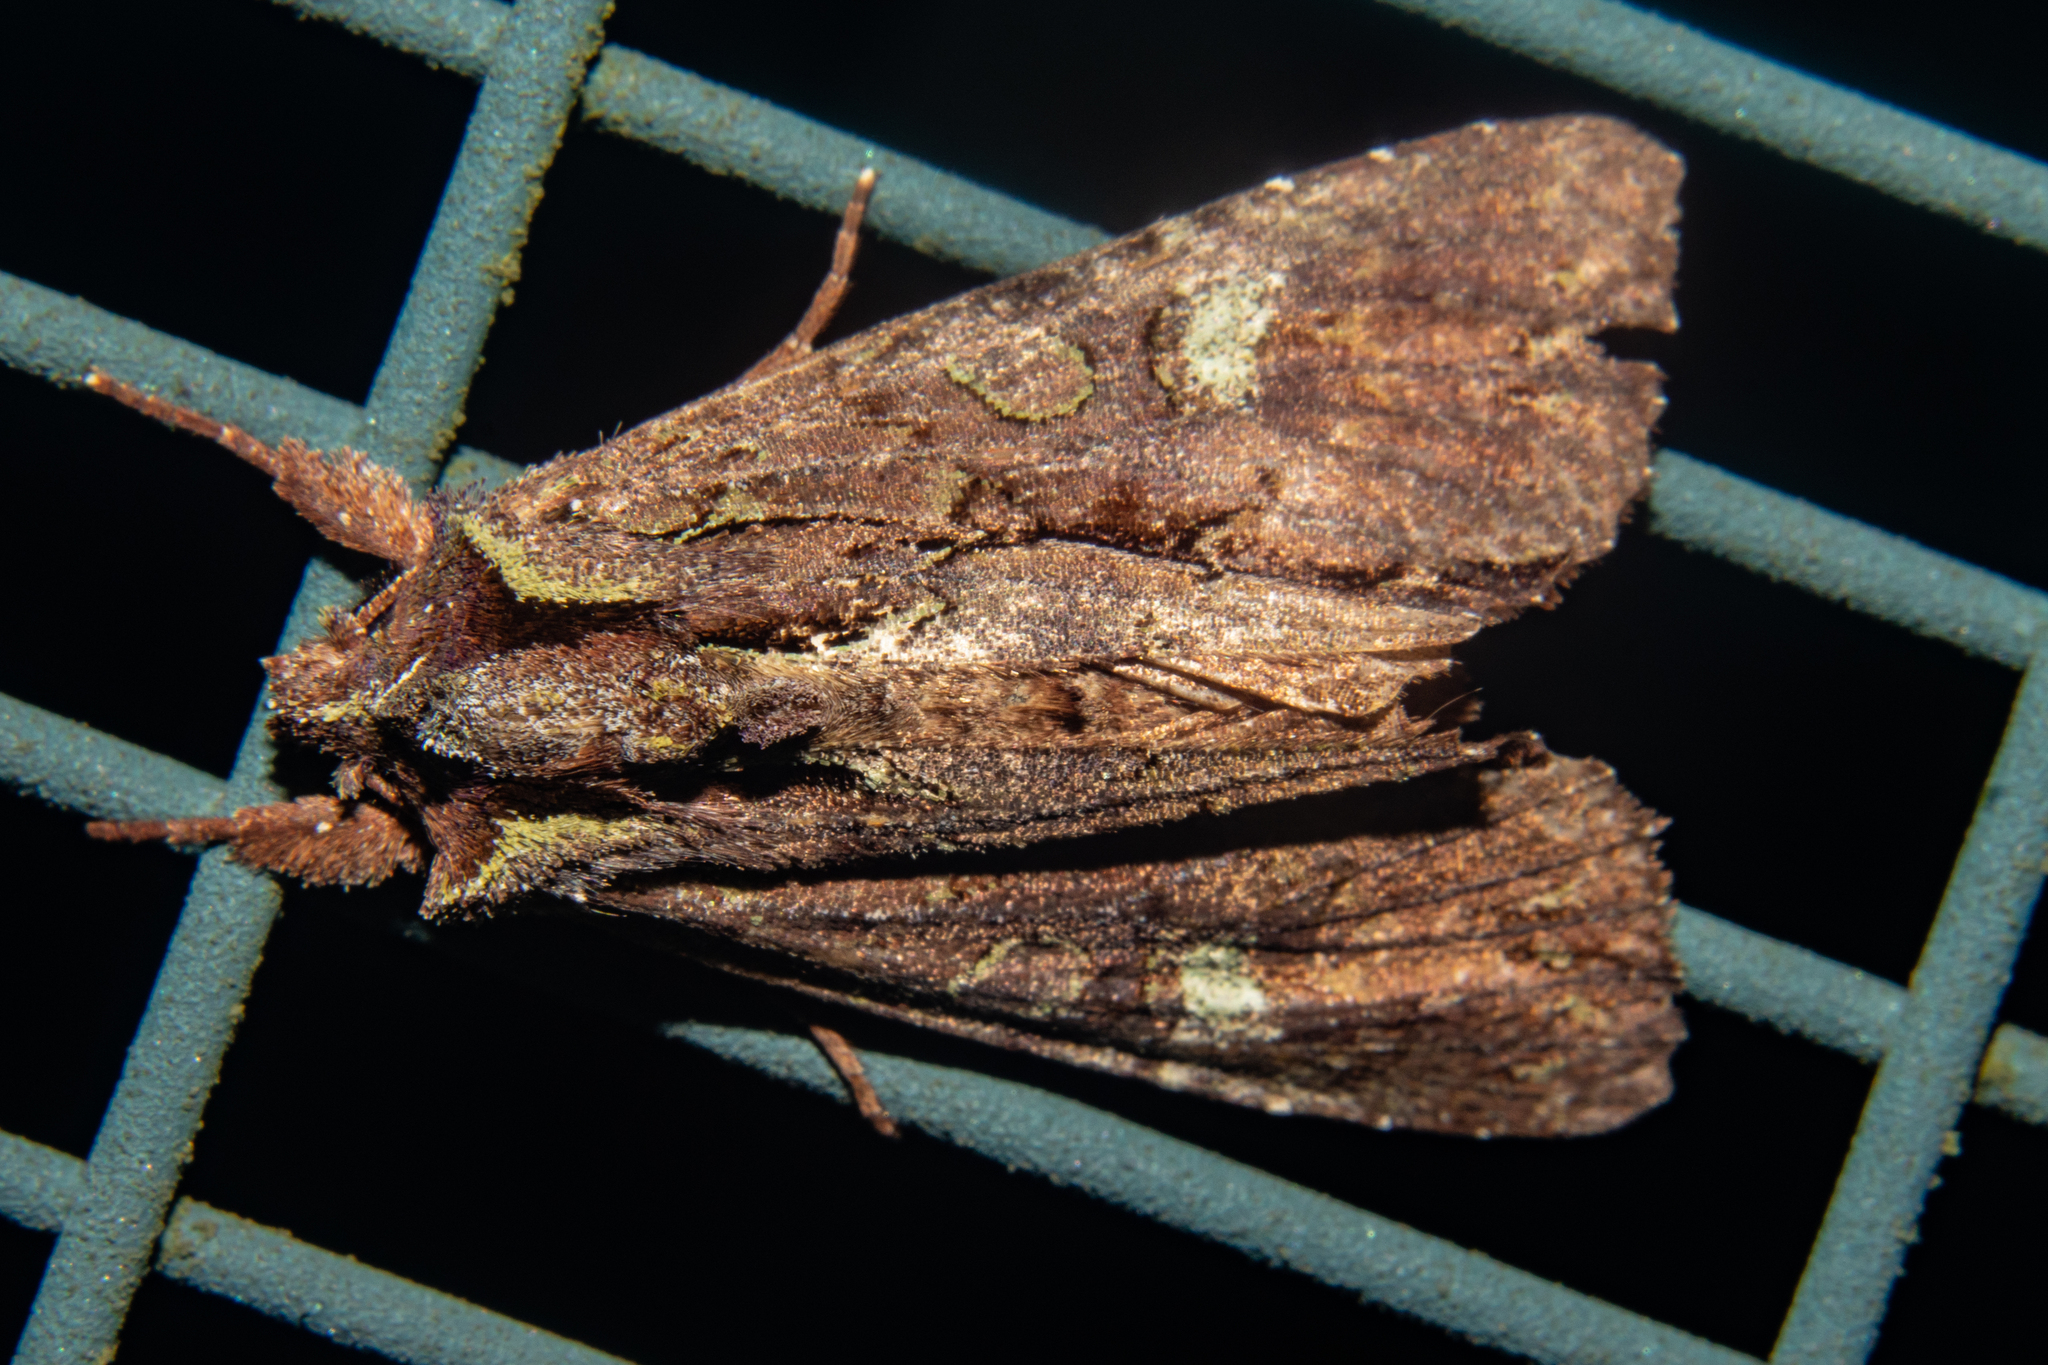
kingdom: Animalia
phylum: Arthropoda
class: Insecta
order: Lepidoptera
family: Noctuidae
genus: Meterana
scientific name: Meterana diatmeta
